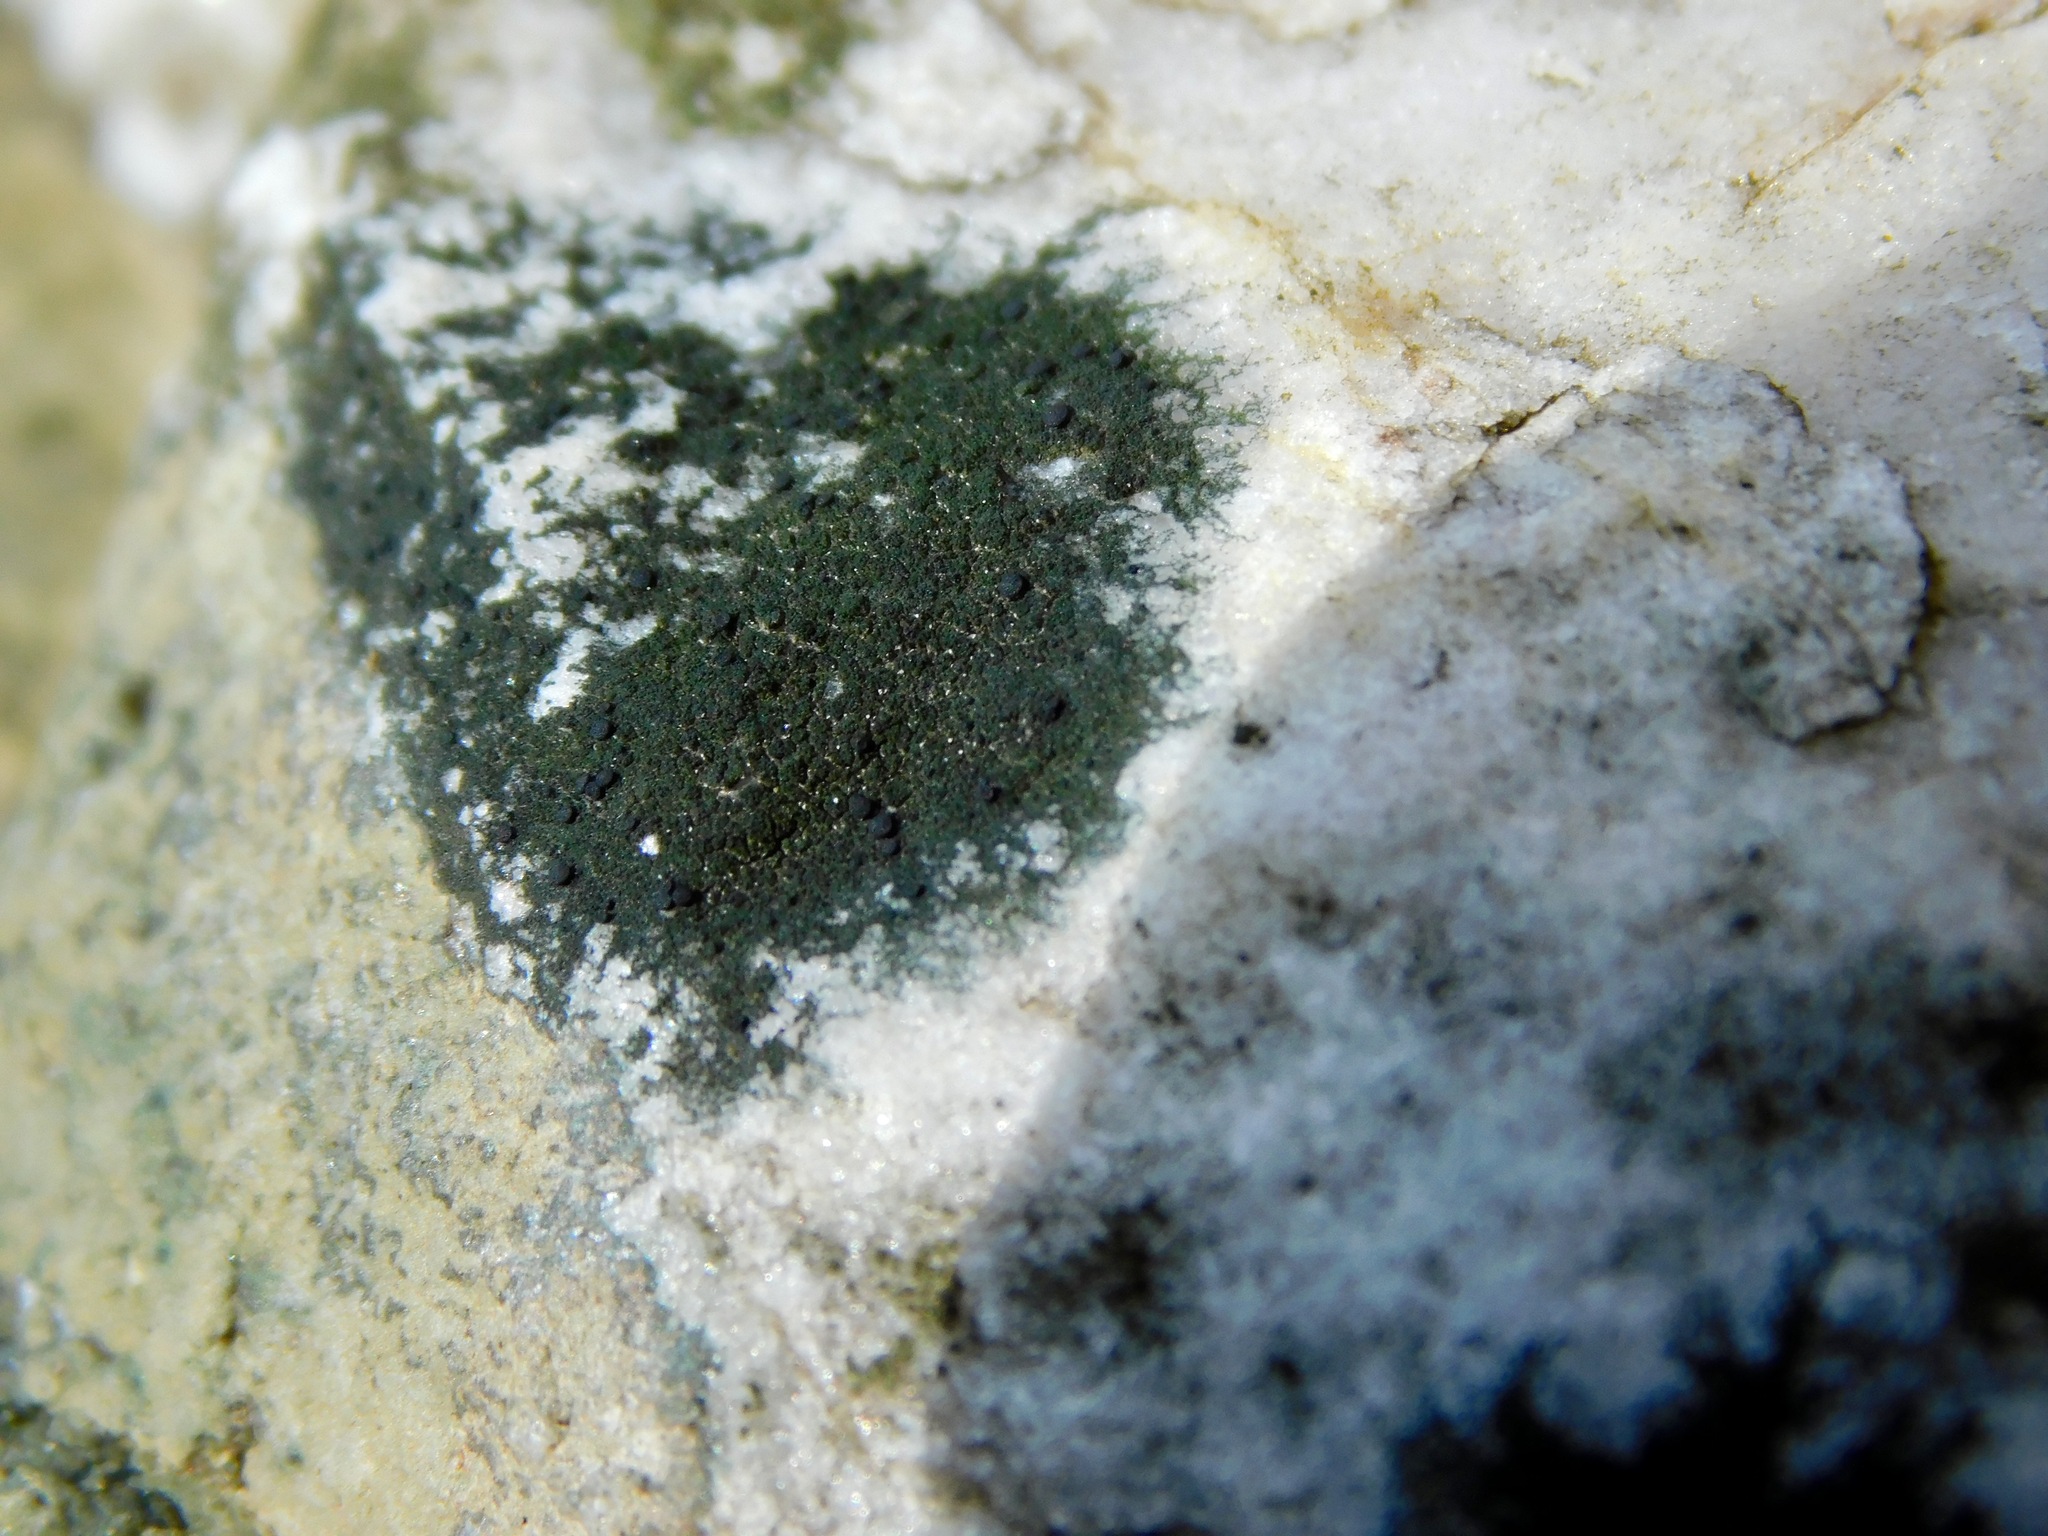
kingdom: Fungi
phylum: Ascomycota
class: Lecanoromycetes
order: Lecanorales
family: Scoliciosporaceae
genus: Scoliciosporum
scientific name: Scoliciosporum umbrinum
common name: Umber dot lichen
